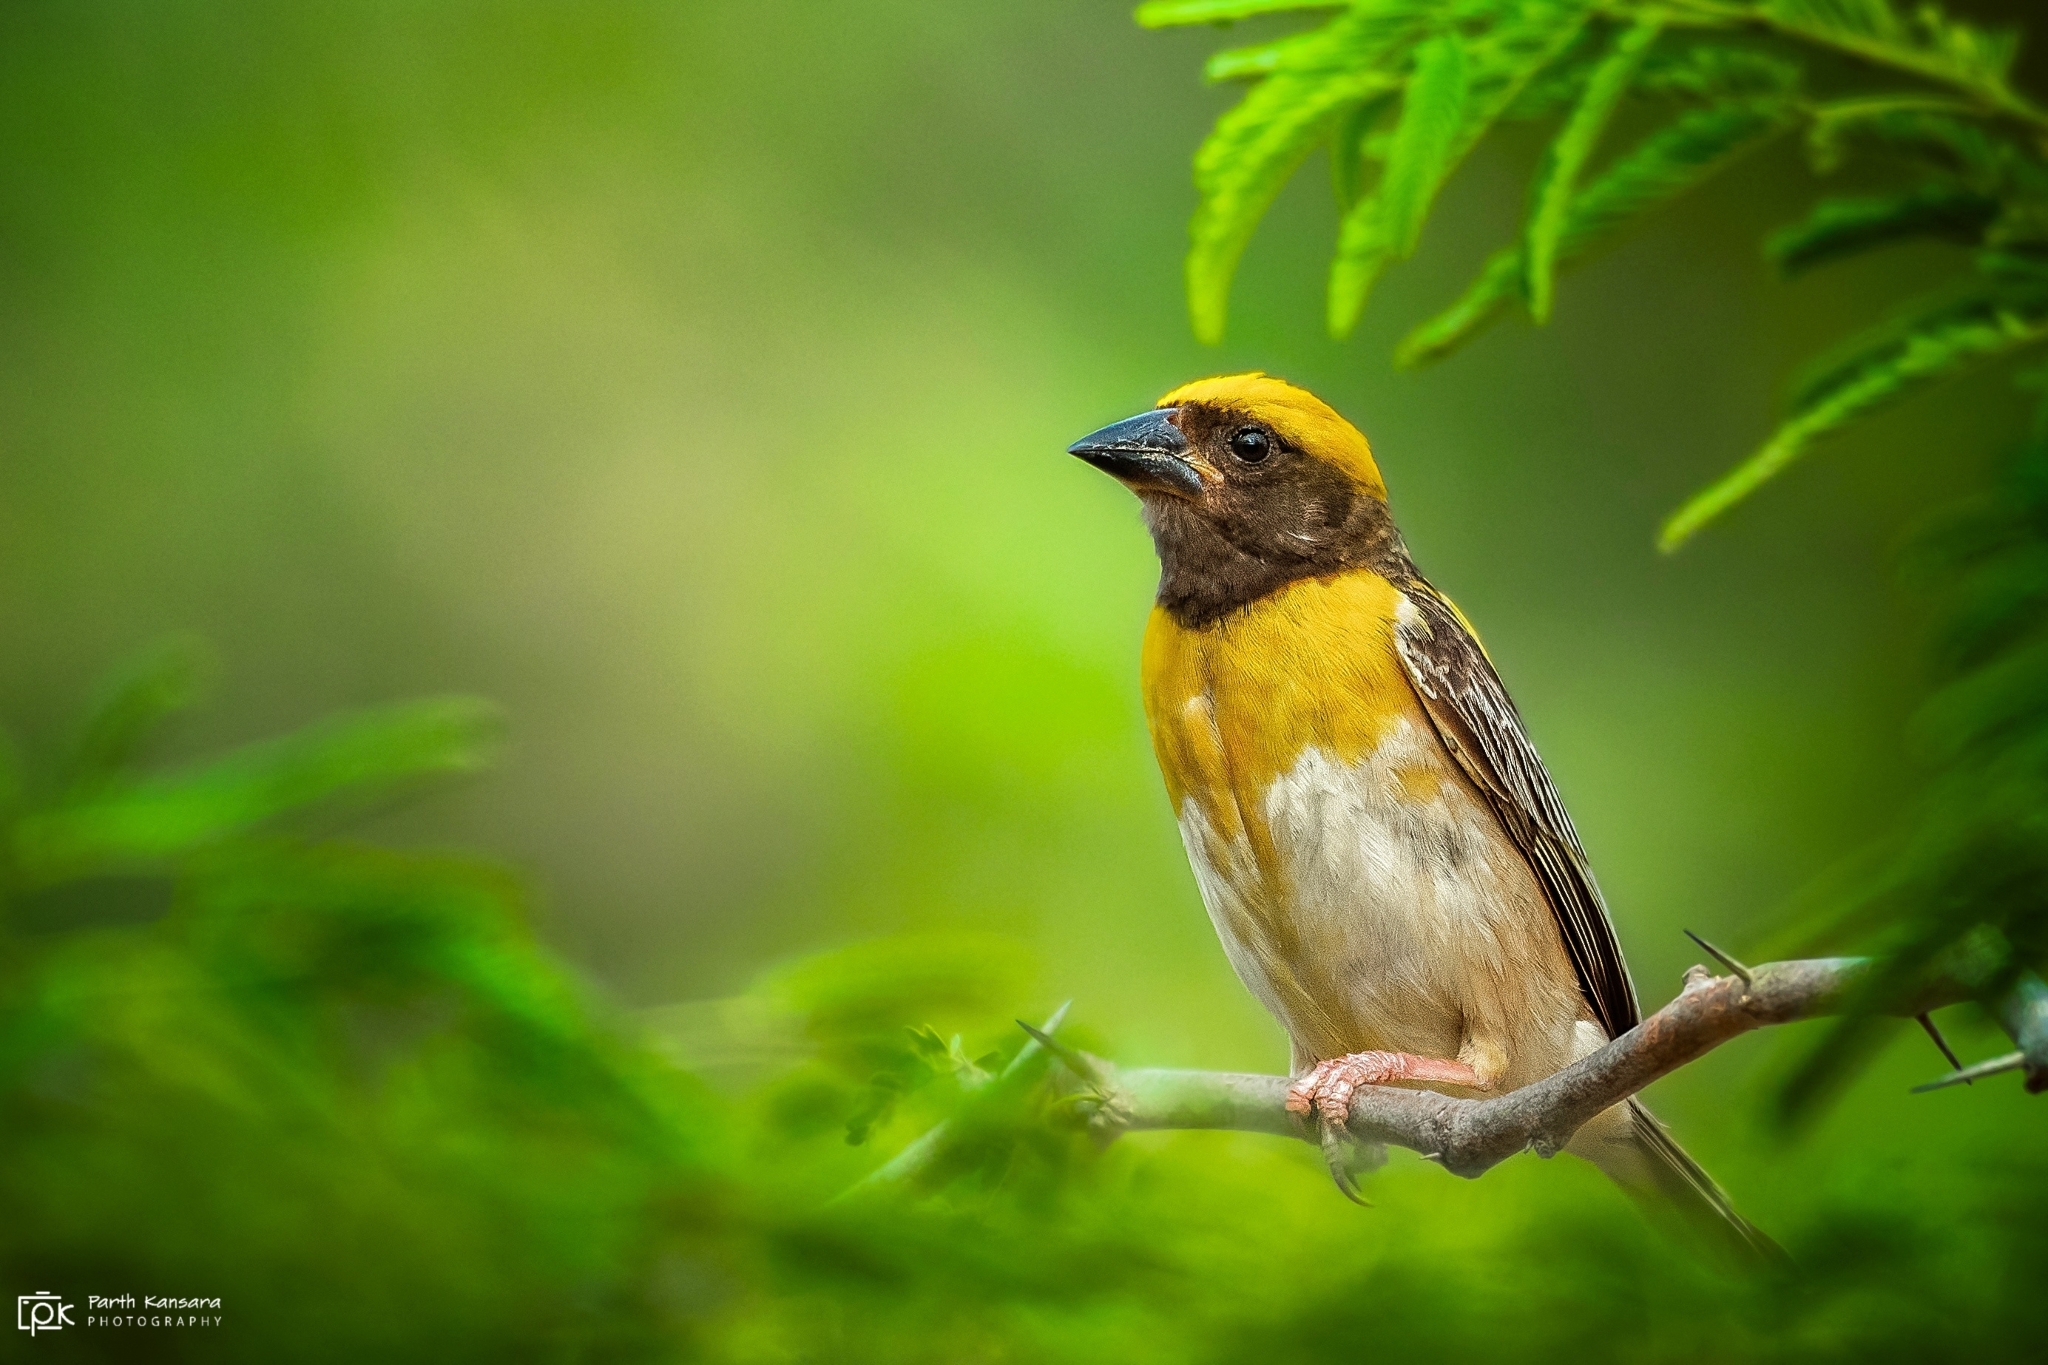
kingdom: Animalia
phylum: Chordata
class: Aves
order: Passeriformes
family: Ploceidae
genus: Ploceus
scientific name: Ploceus philippinus
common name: Baya weaver
